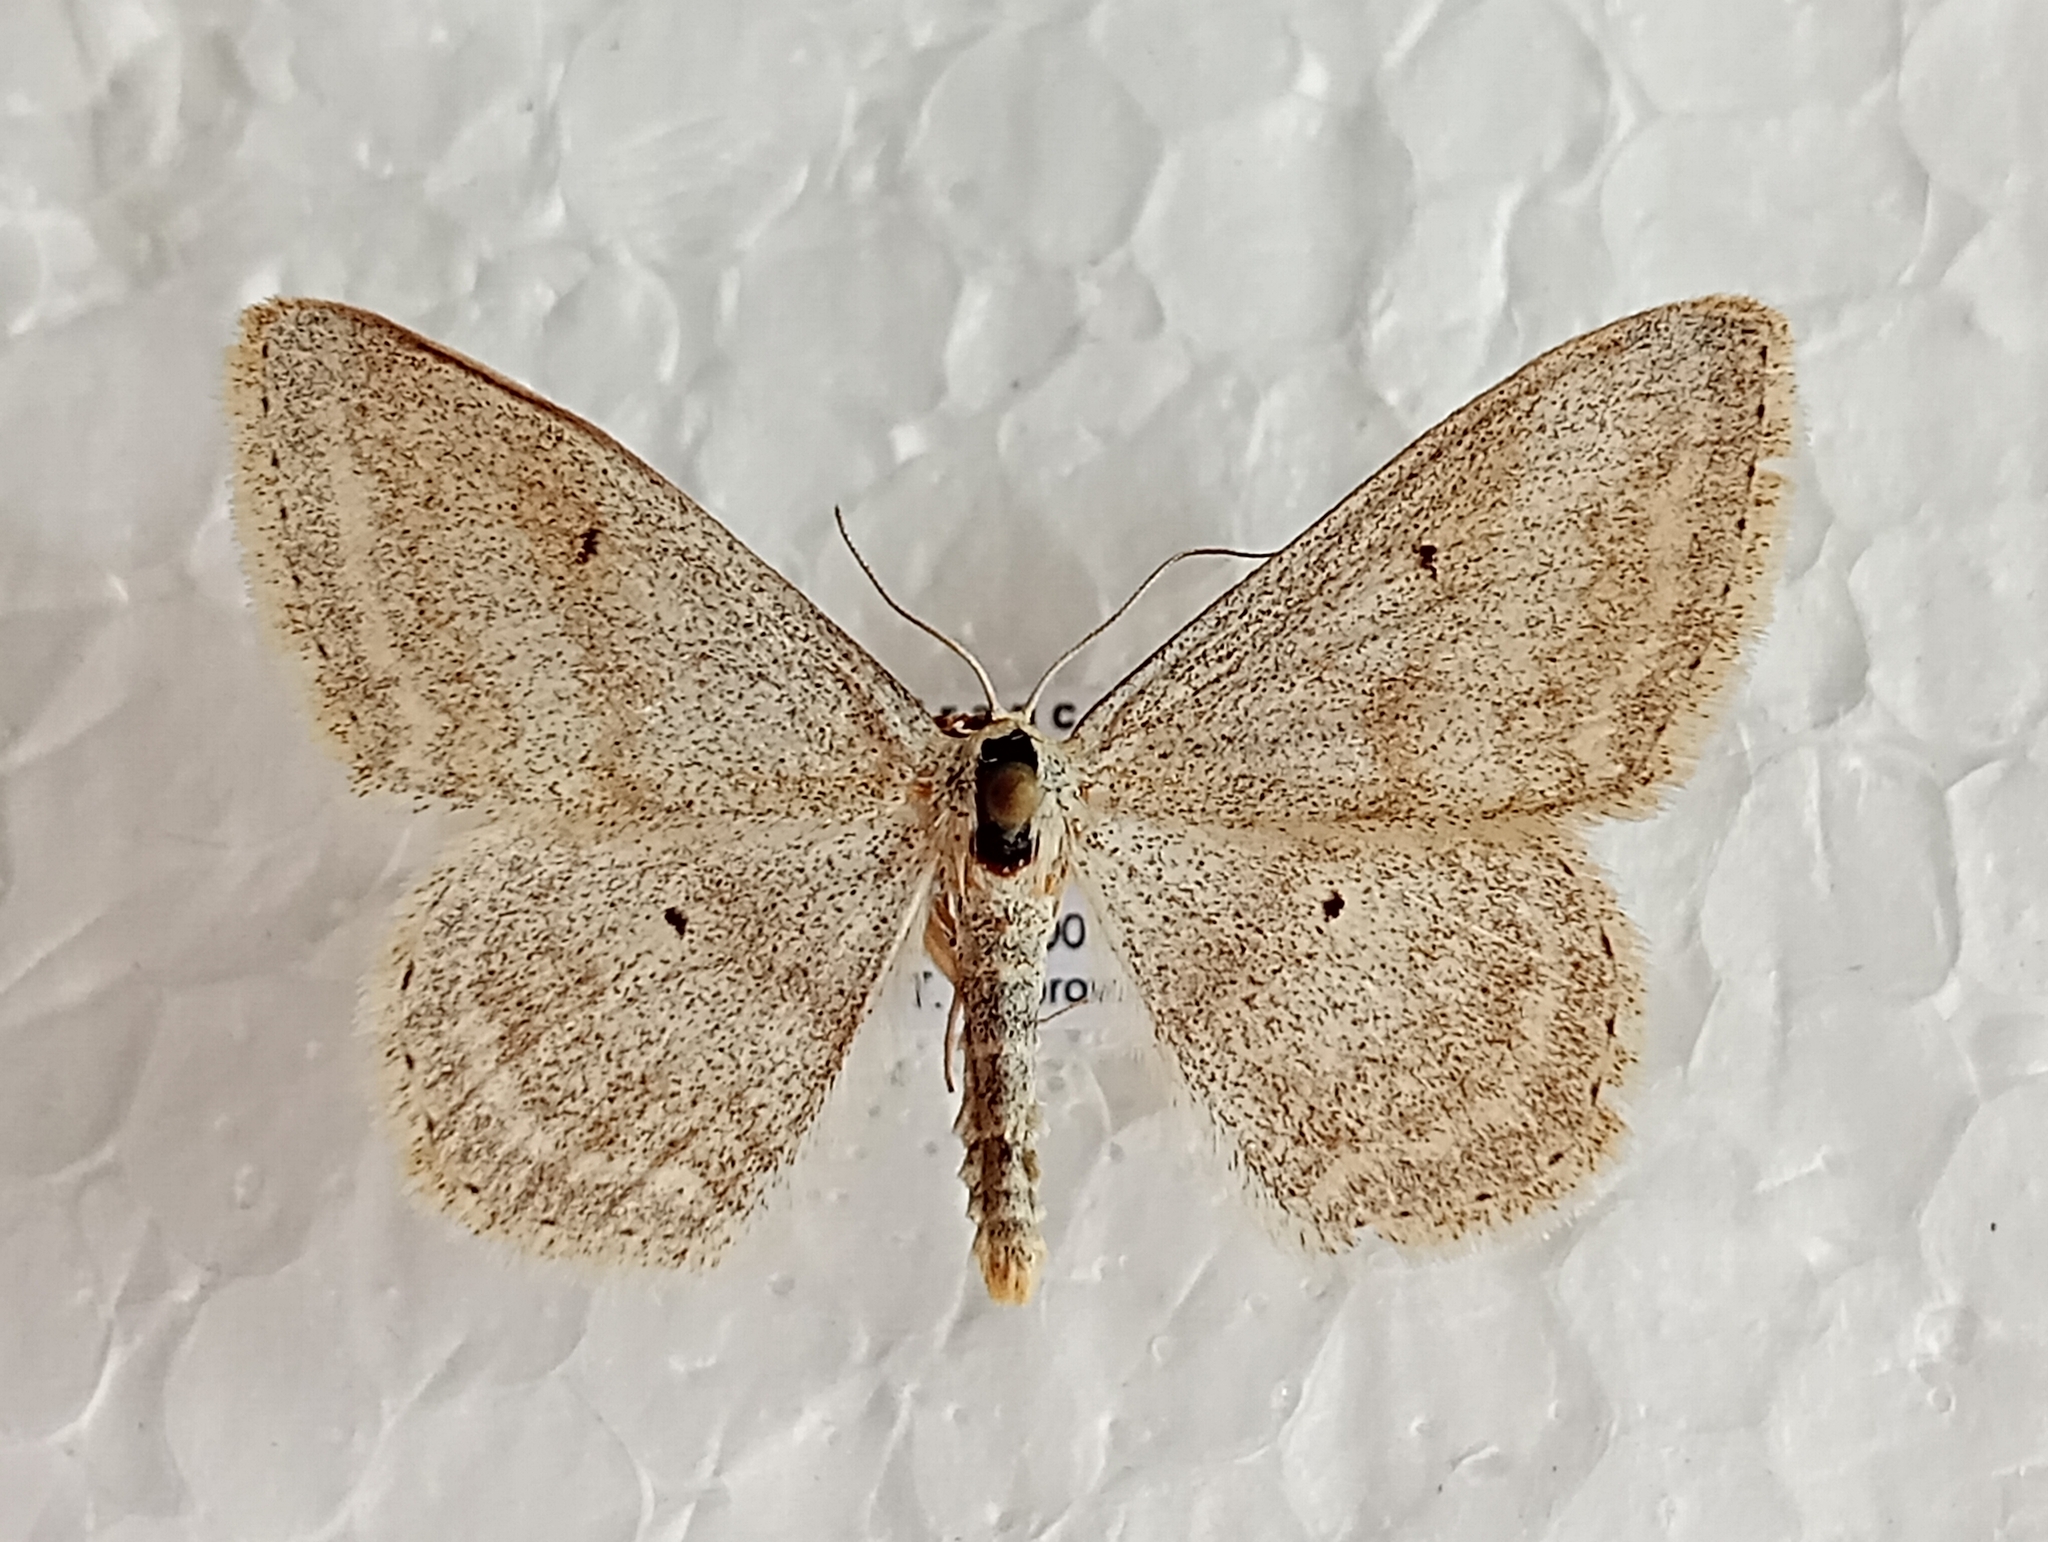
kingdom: Animalia
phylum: Arthropoda
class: Insecta
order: Lepidoptera
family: Geometridae
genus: Scopula
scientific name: Scopula incanata
